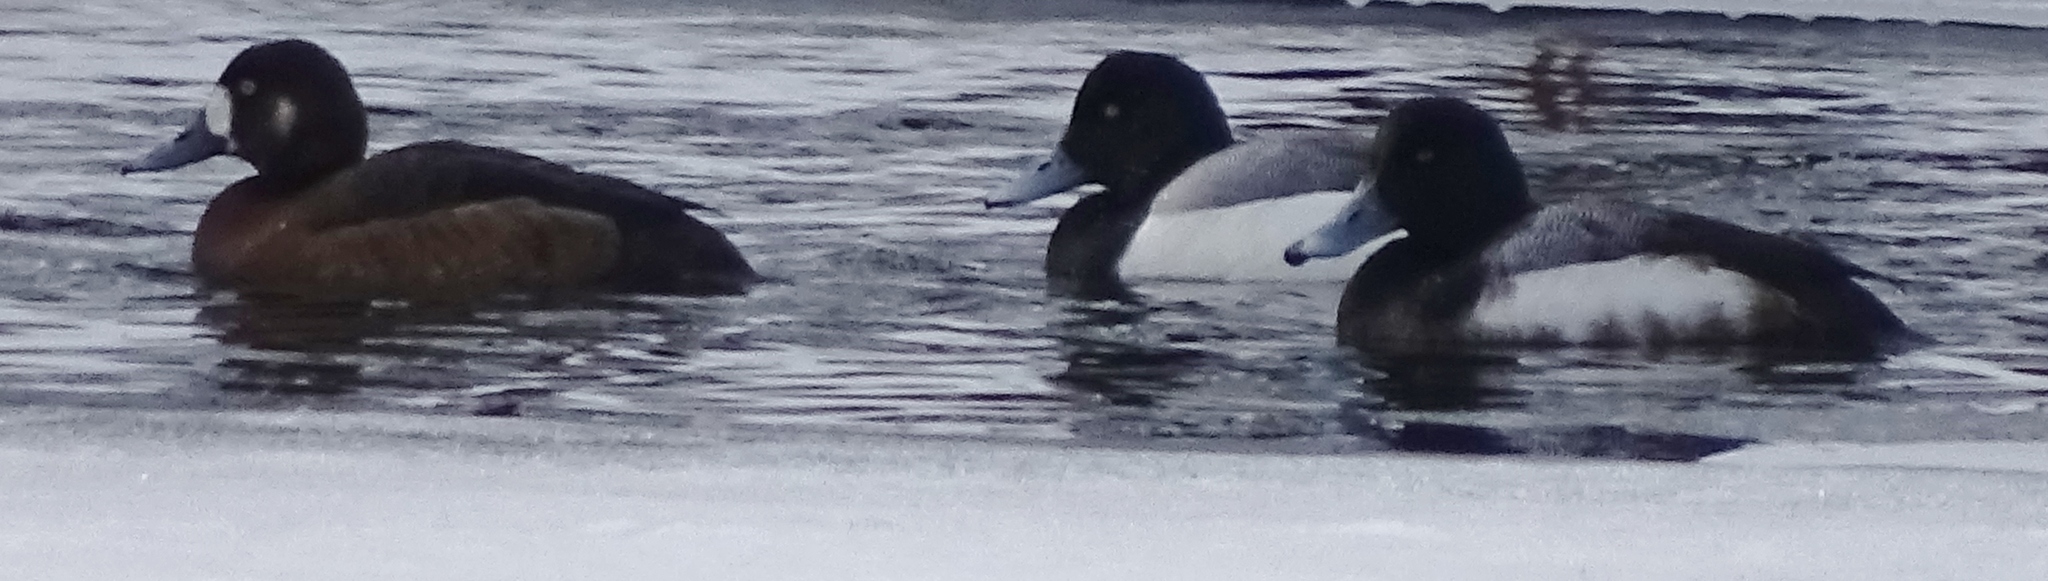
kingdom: Animalia
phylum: Chordata
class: Aves
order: Anseriformes
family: Anatidae
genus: Aythya
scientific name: Aythya marila
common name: Greater scaup
